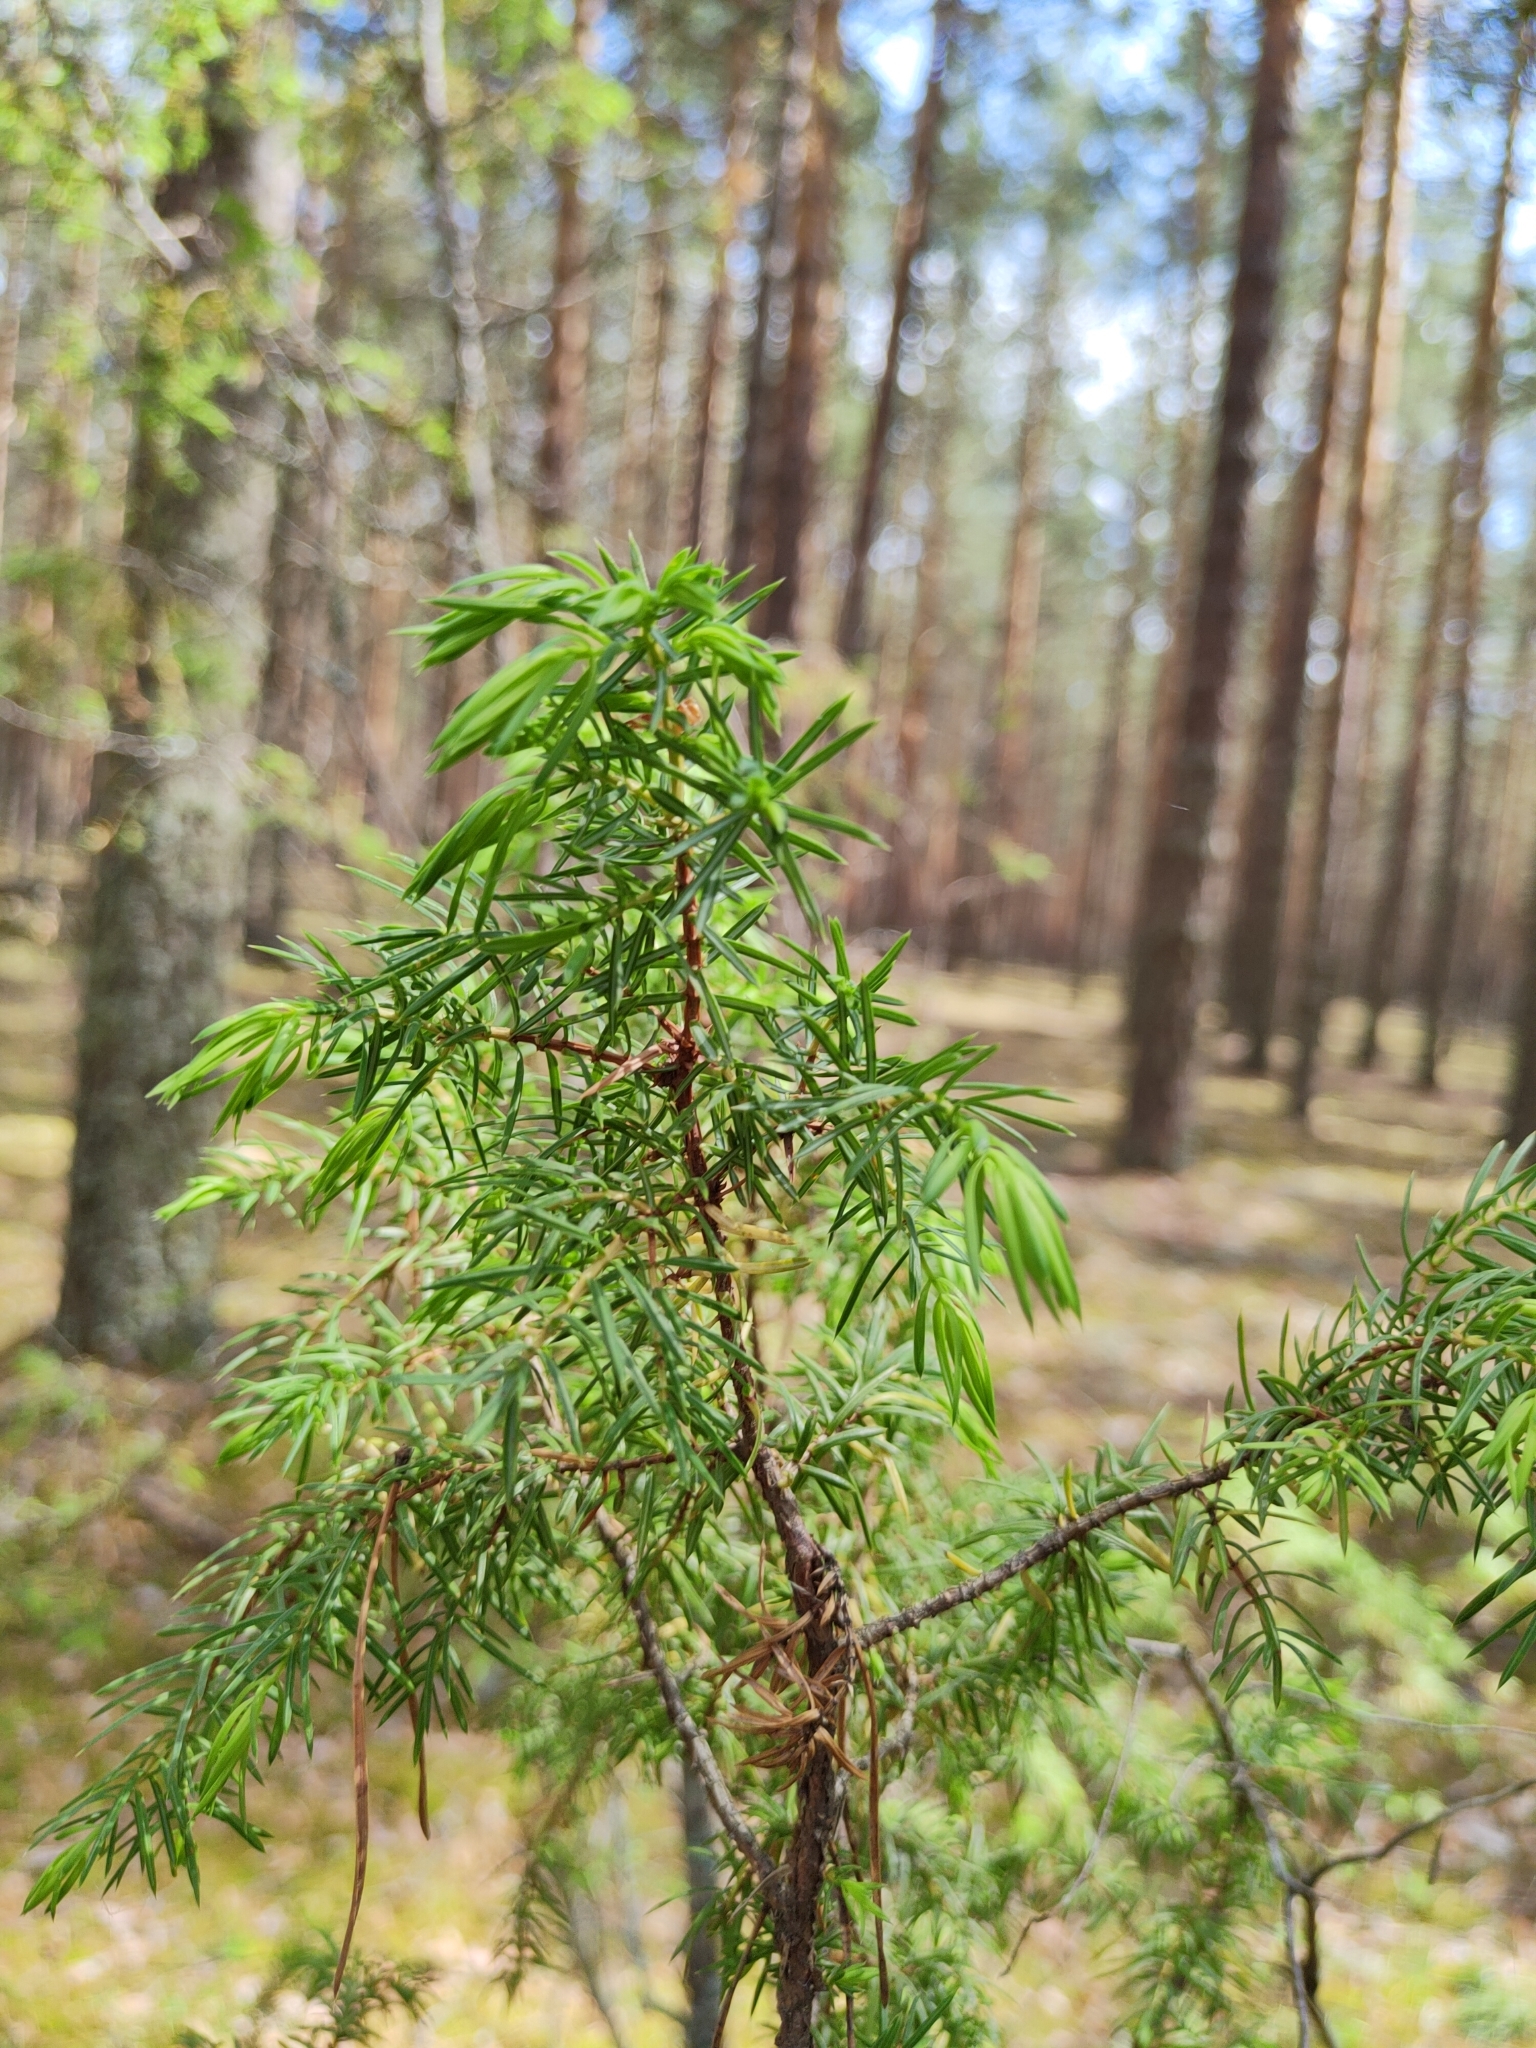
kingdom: Plantae
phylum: Tracheophyta
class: Pinopsida
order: Pinales
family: Cupressaceae
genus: Juniperus
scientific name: Juniperus communis
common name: Common juniper
